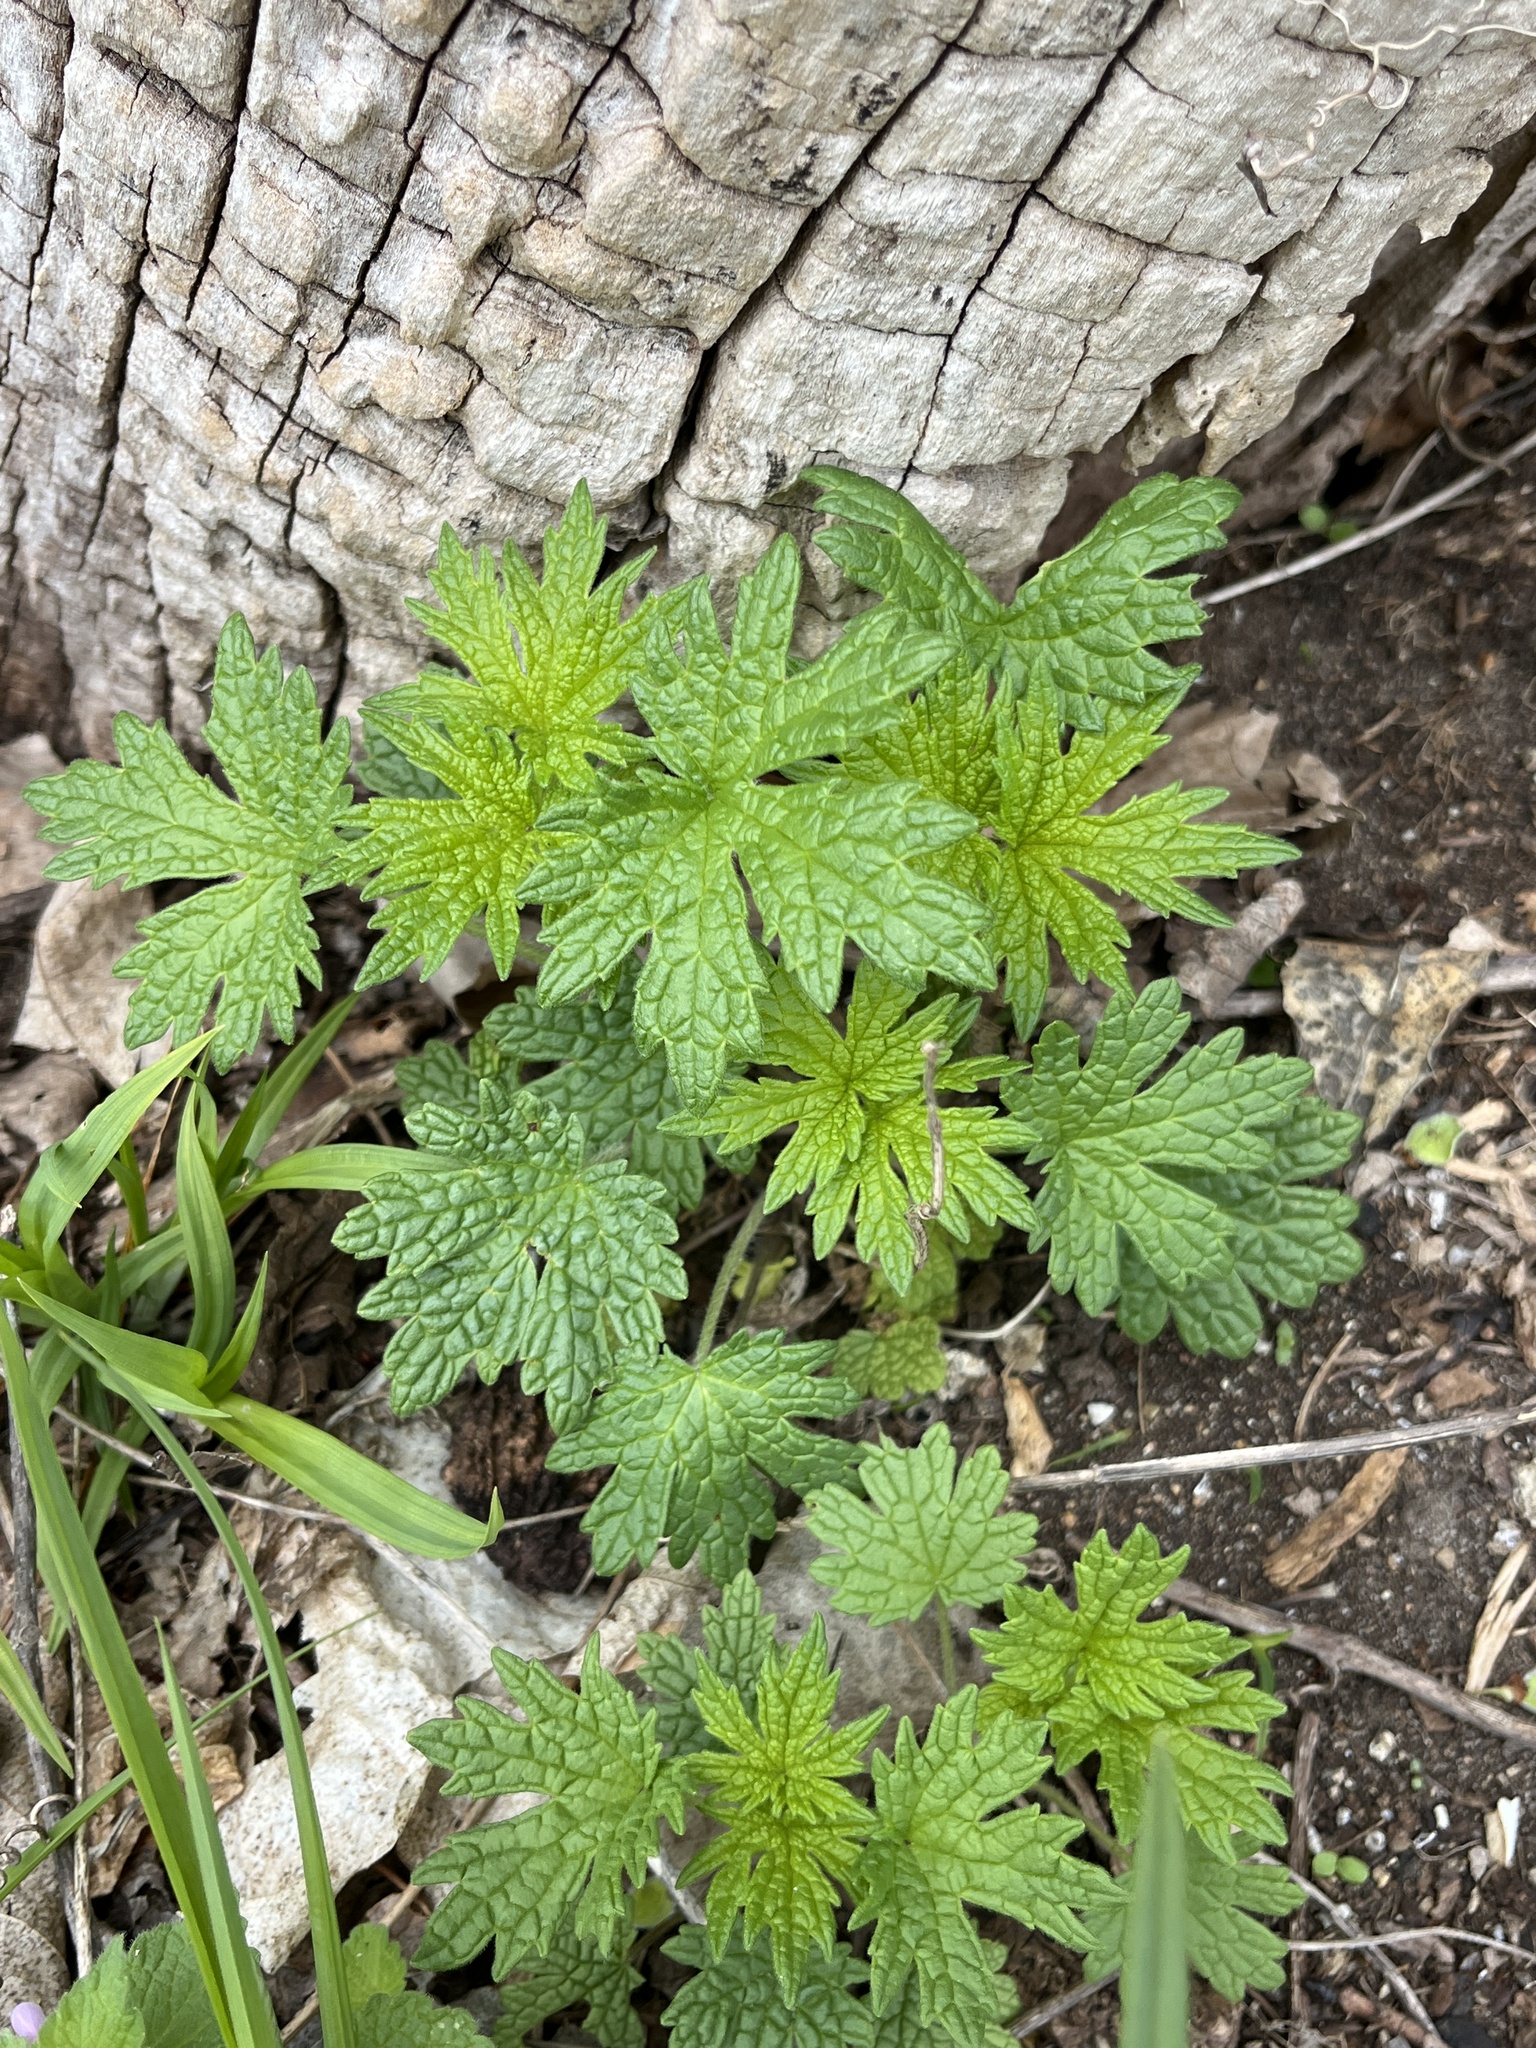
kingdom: Plantae
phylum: Tracheophyta
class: Magnoliopsida
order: Lamiales
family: Lamiaceae
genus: Leonurus
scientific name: Leonurus cardiaca
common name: Motherwort
